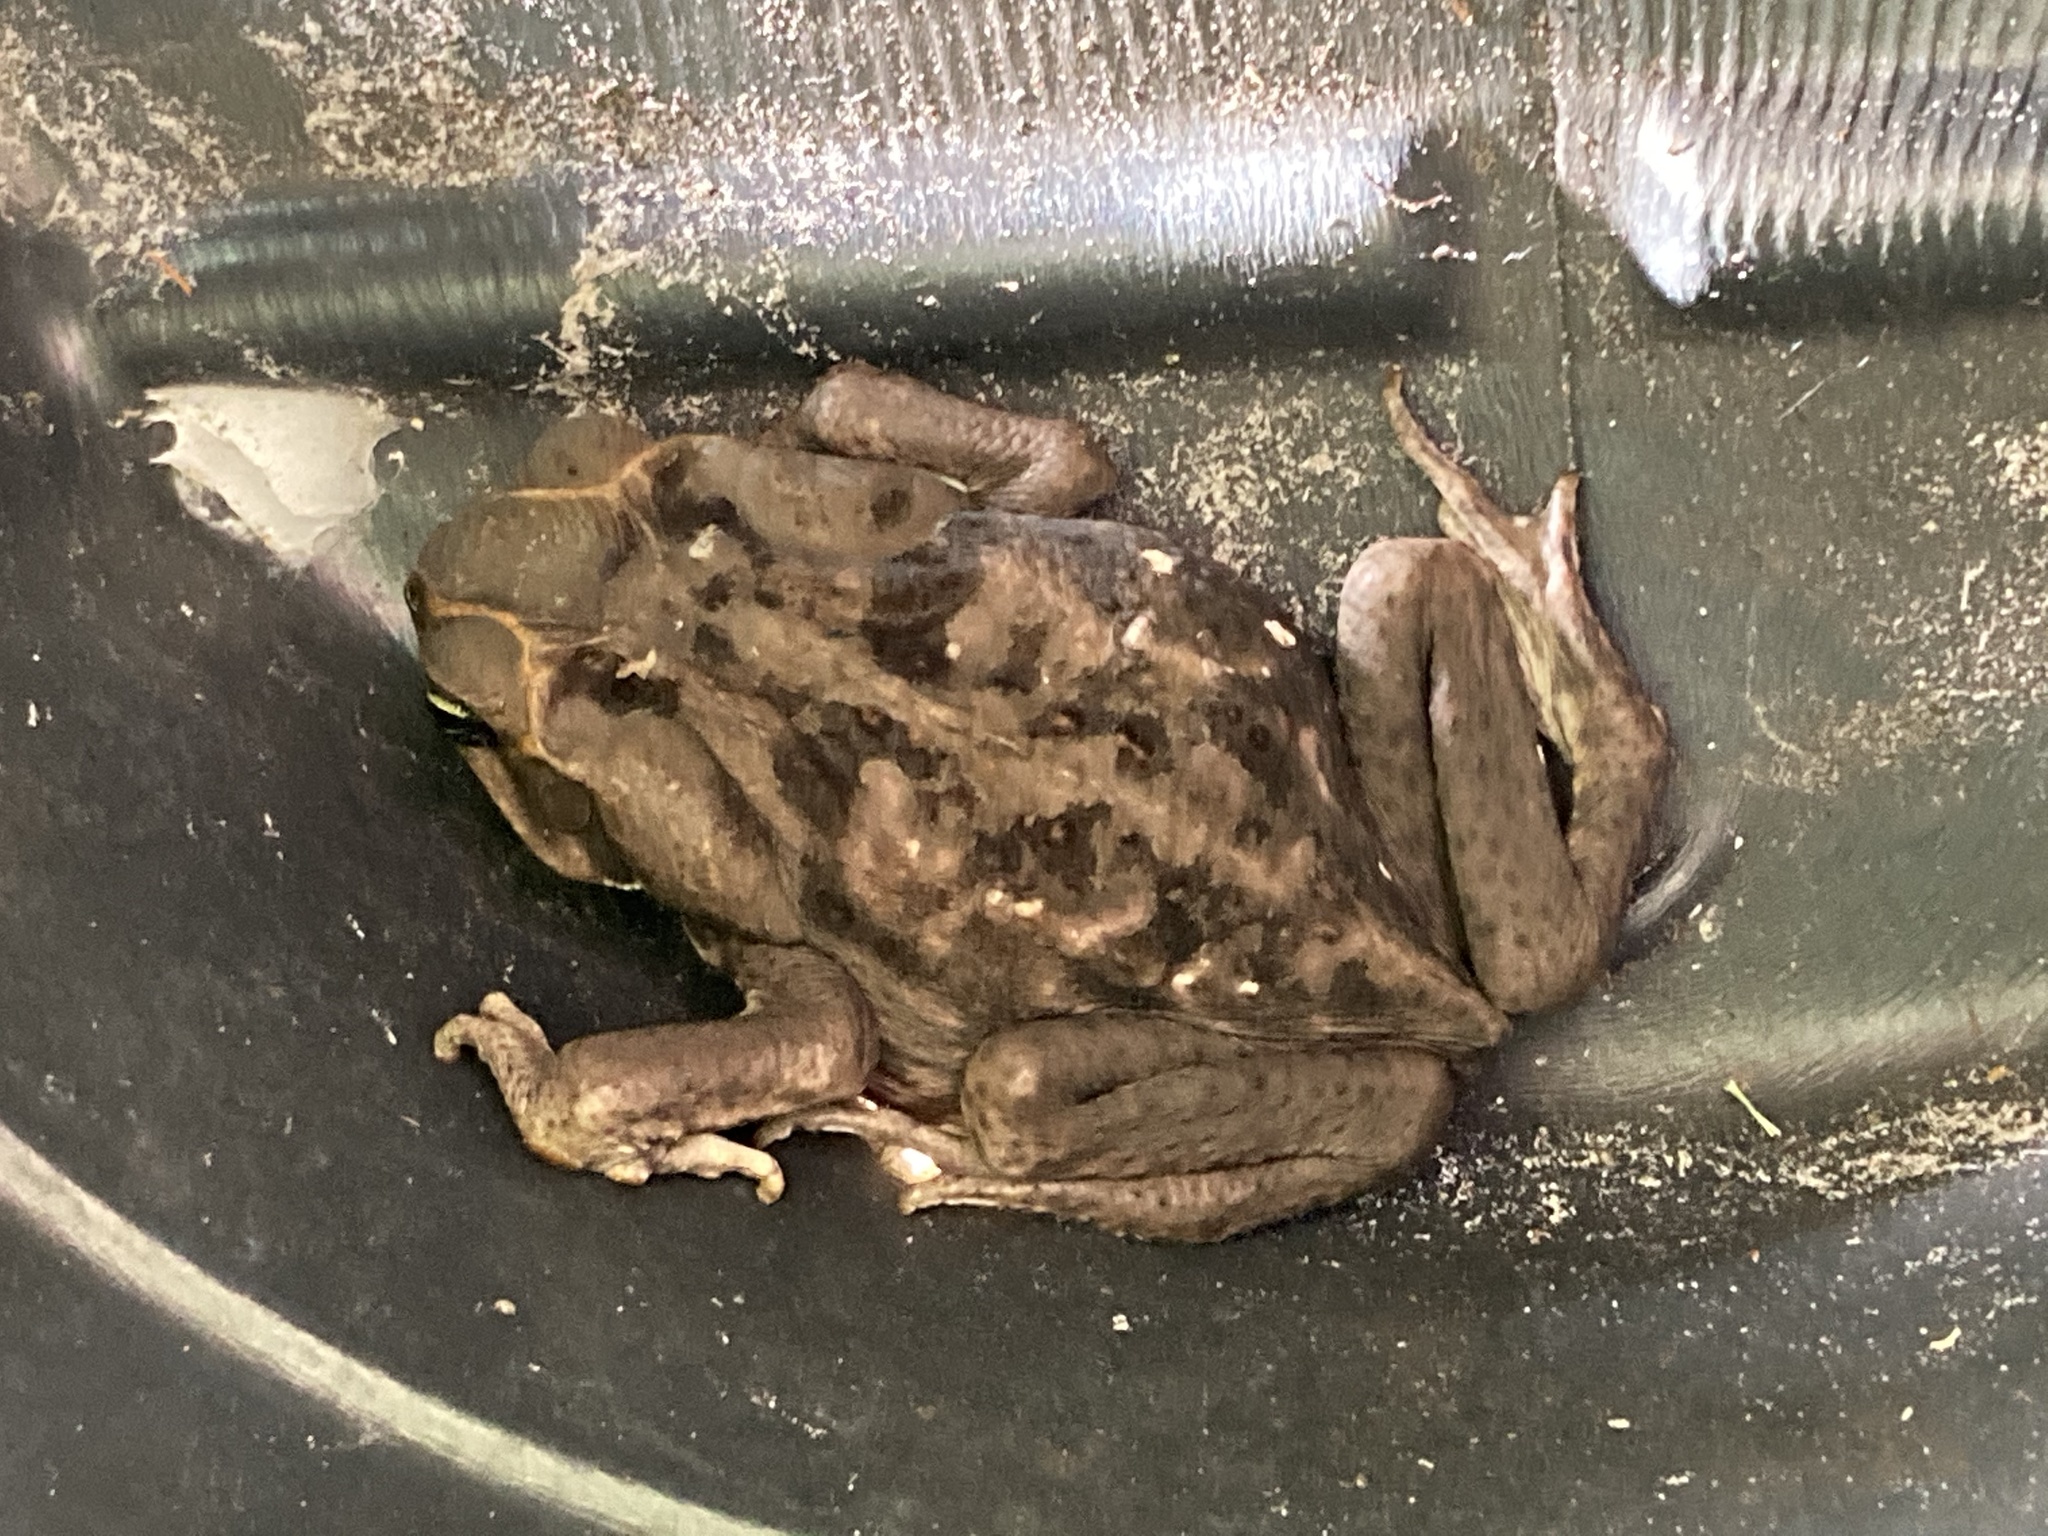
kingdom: Animalia
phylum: Chordata
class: Amphibia
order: Anura
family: Bufonidae
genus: Rhinella
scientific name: Rhinella marina
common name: Cane toad
